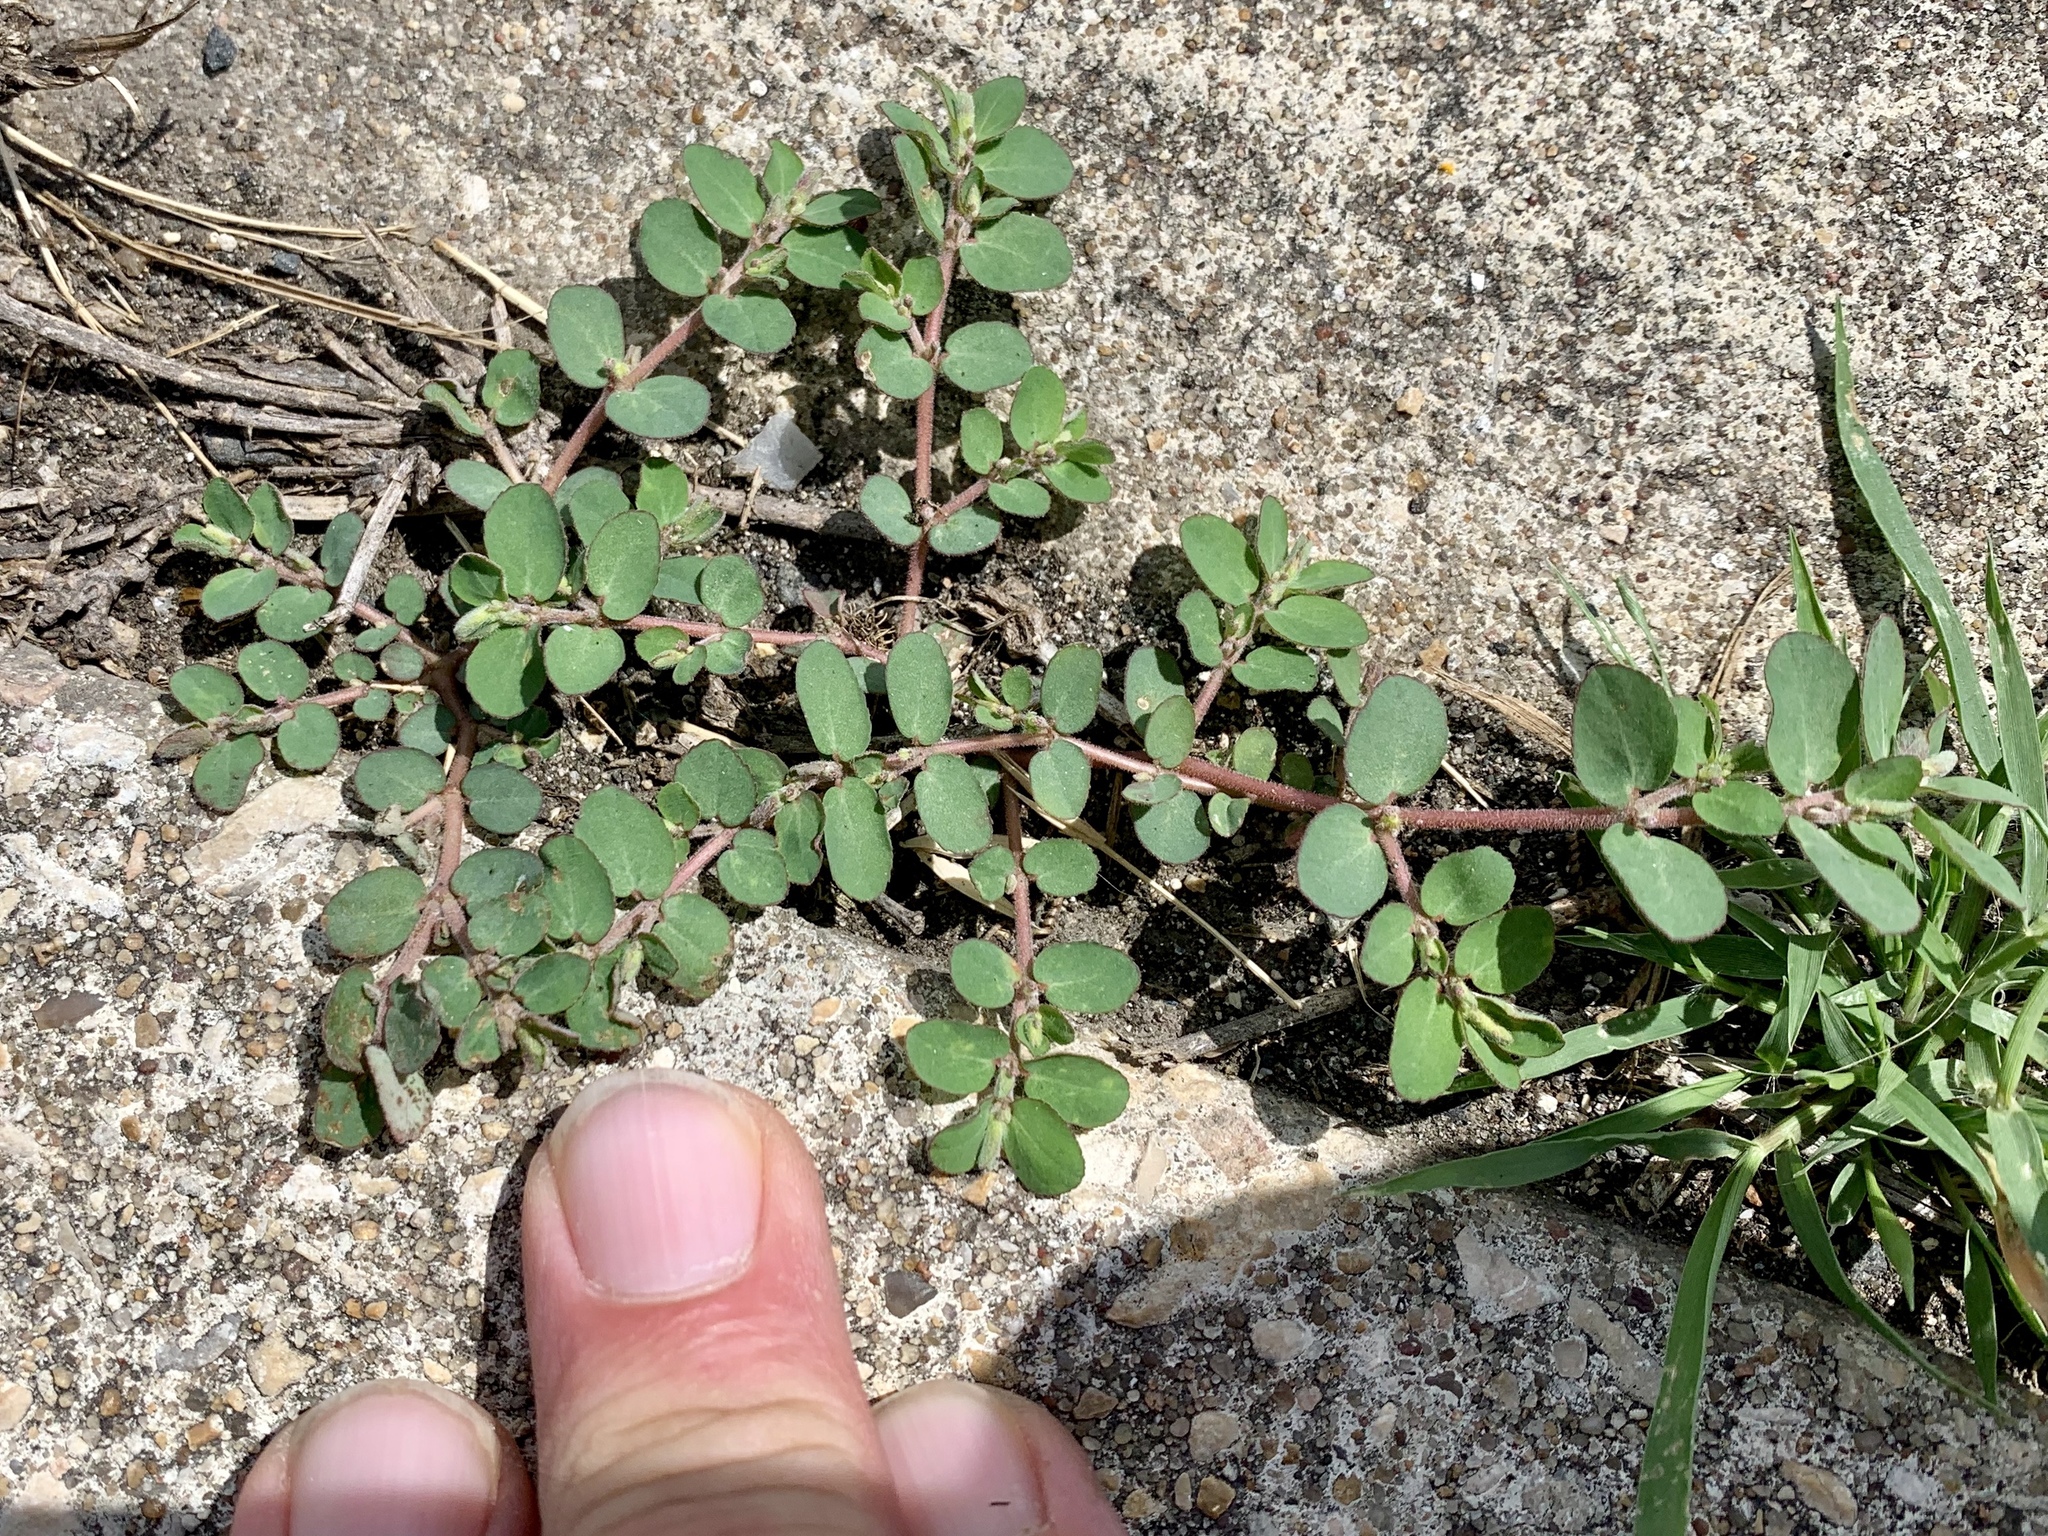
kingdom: Plantae
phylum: Tracheophyta
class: Magnoliopsida
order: Malpighiales
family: Euphorbiaceae
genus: Euphorbia
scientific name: Euphorbia prostrata
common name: Prostrate sandmat
